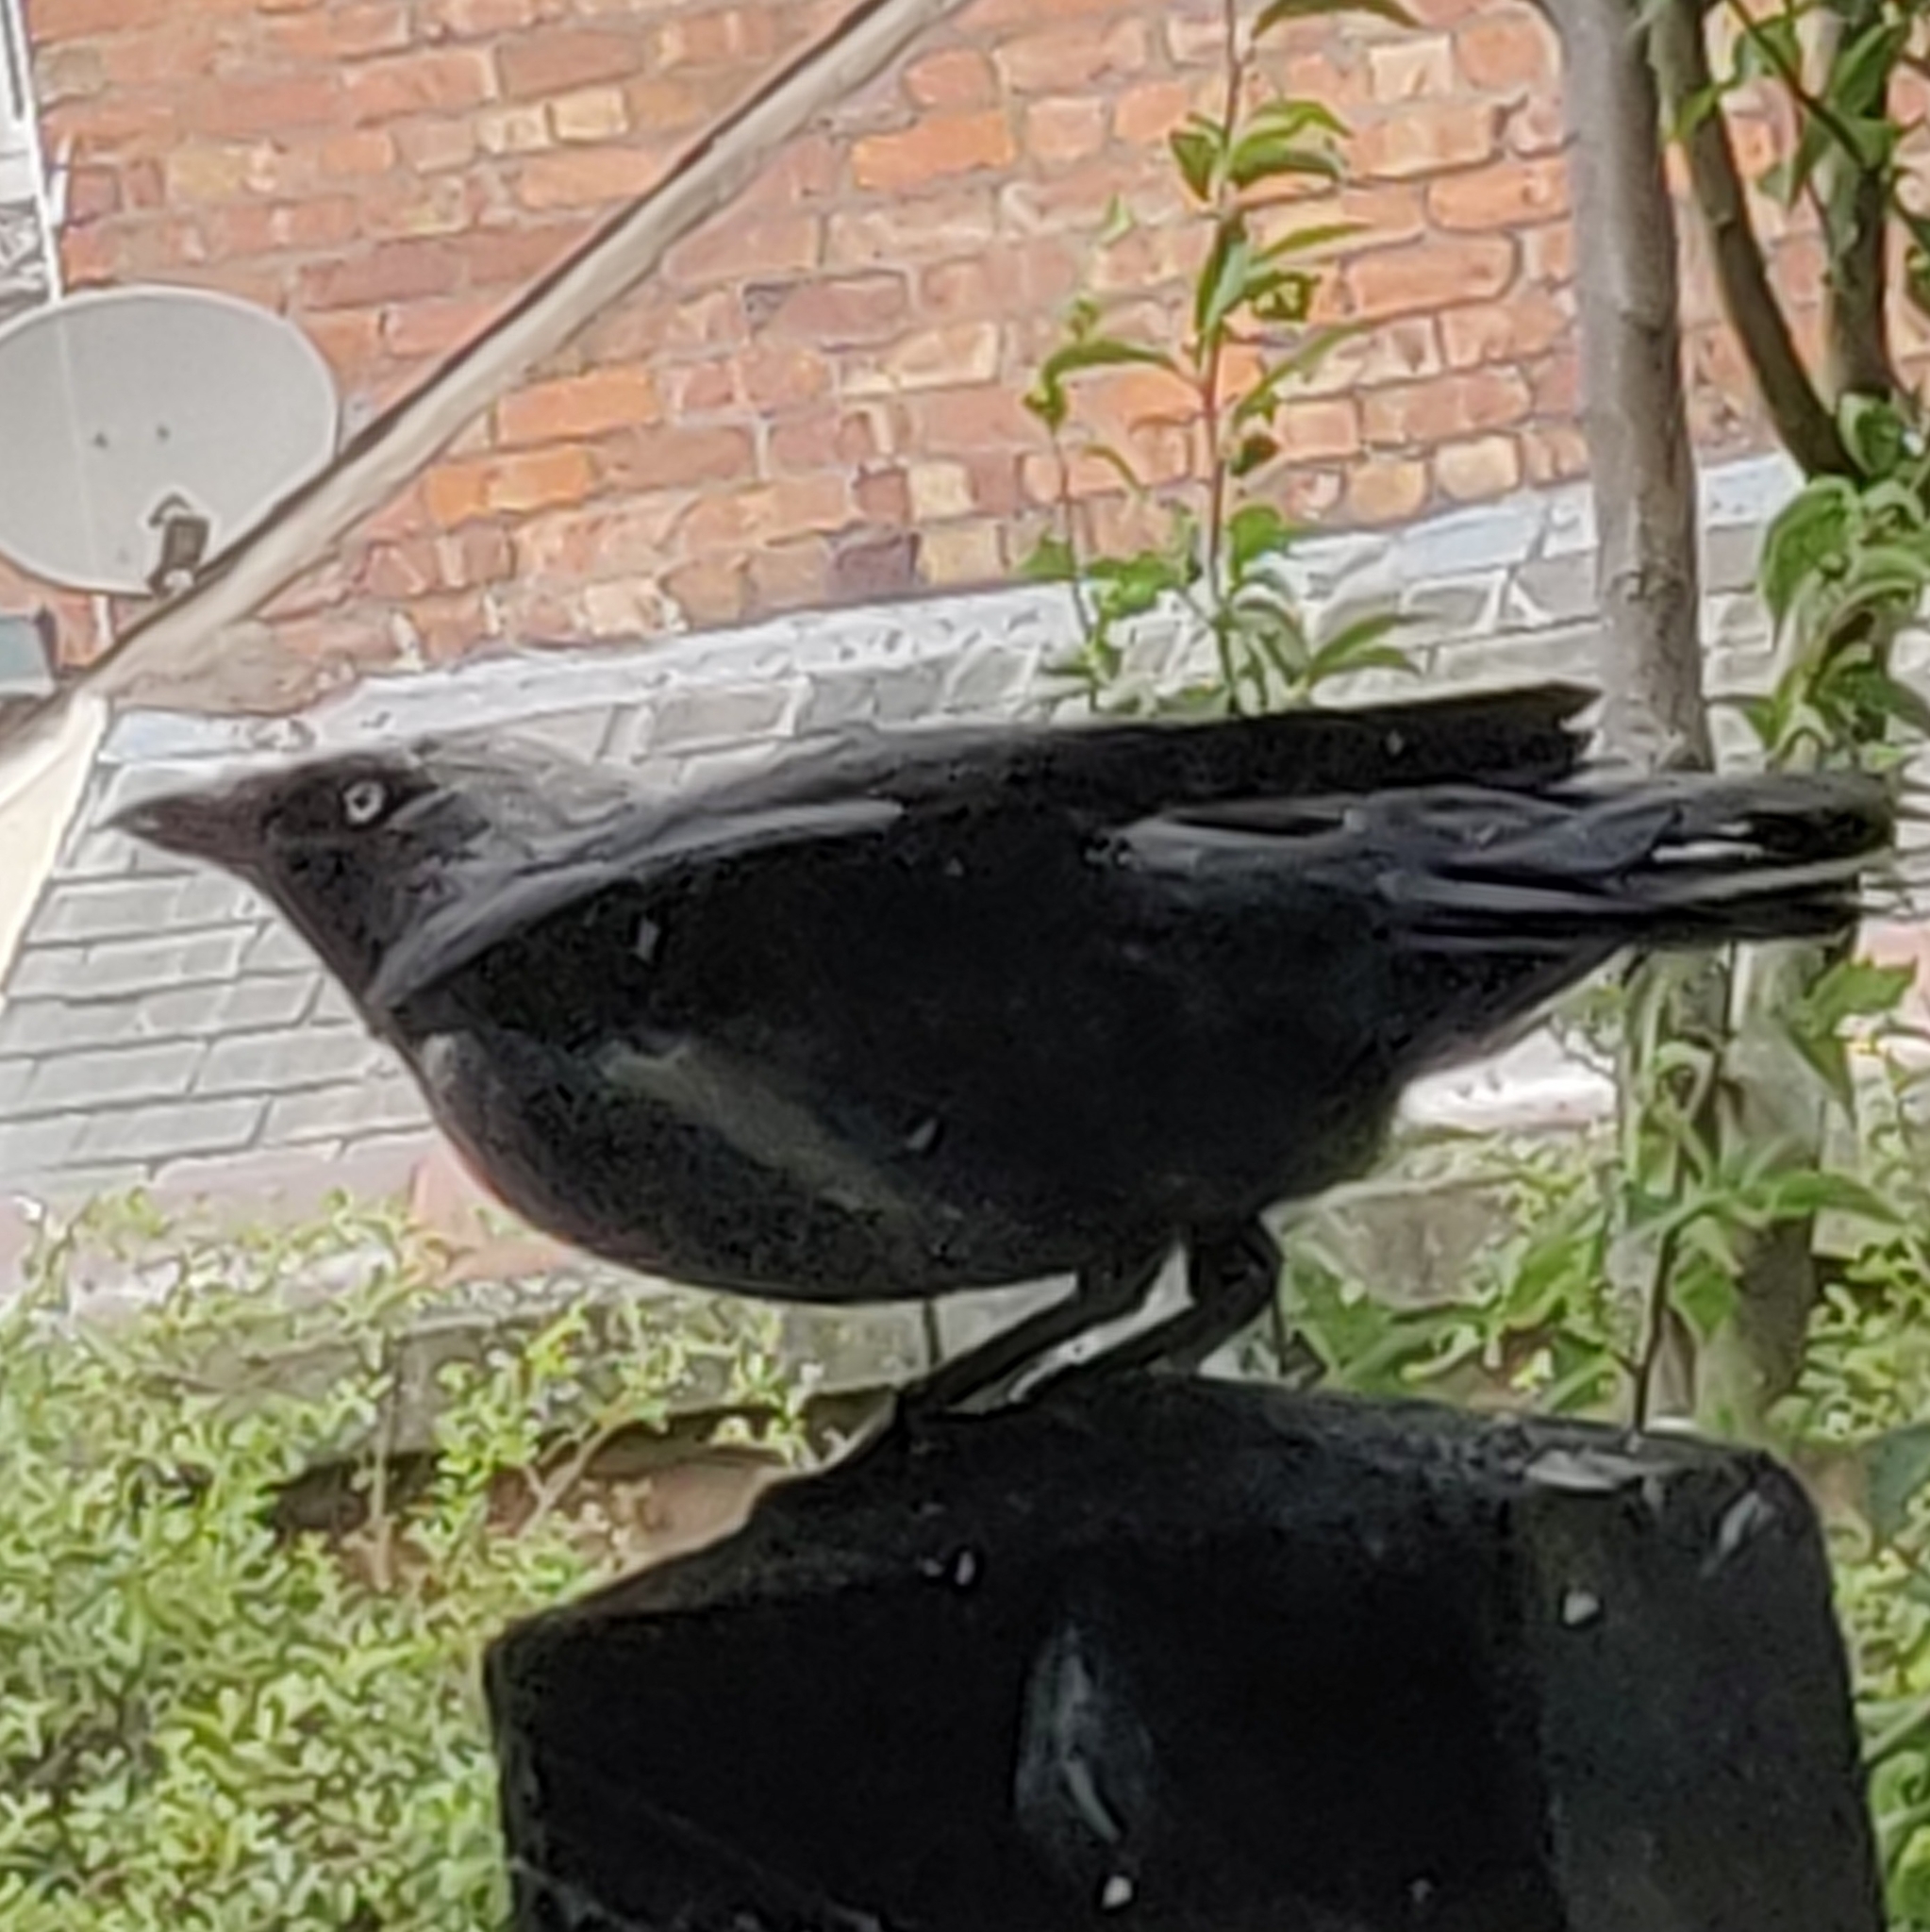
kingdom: Animalia
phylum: Chordata
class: Aves
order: Passeriformes
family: Corvidae
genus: Coloeus
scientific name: Coloeus monedula
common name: Western jackdaw
